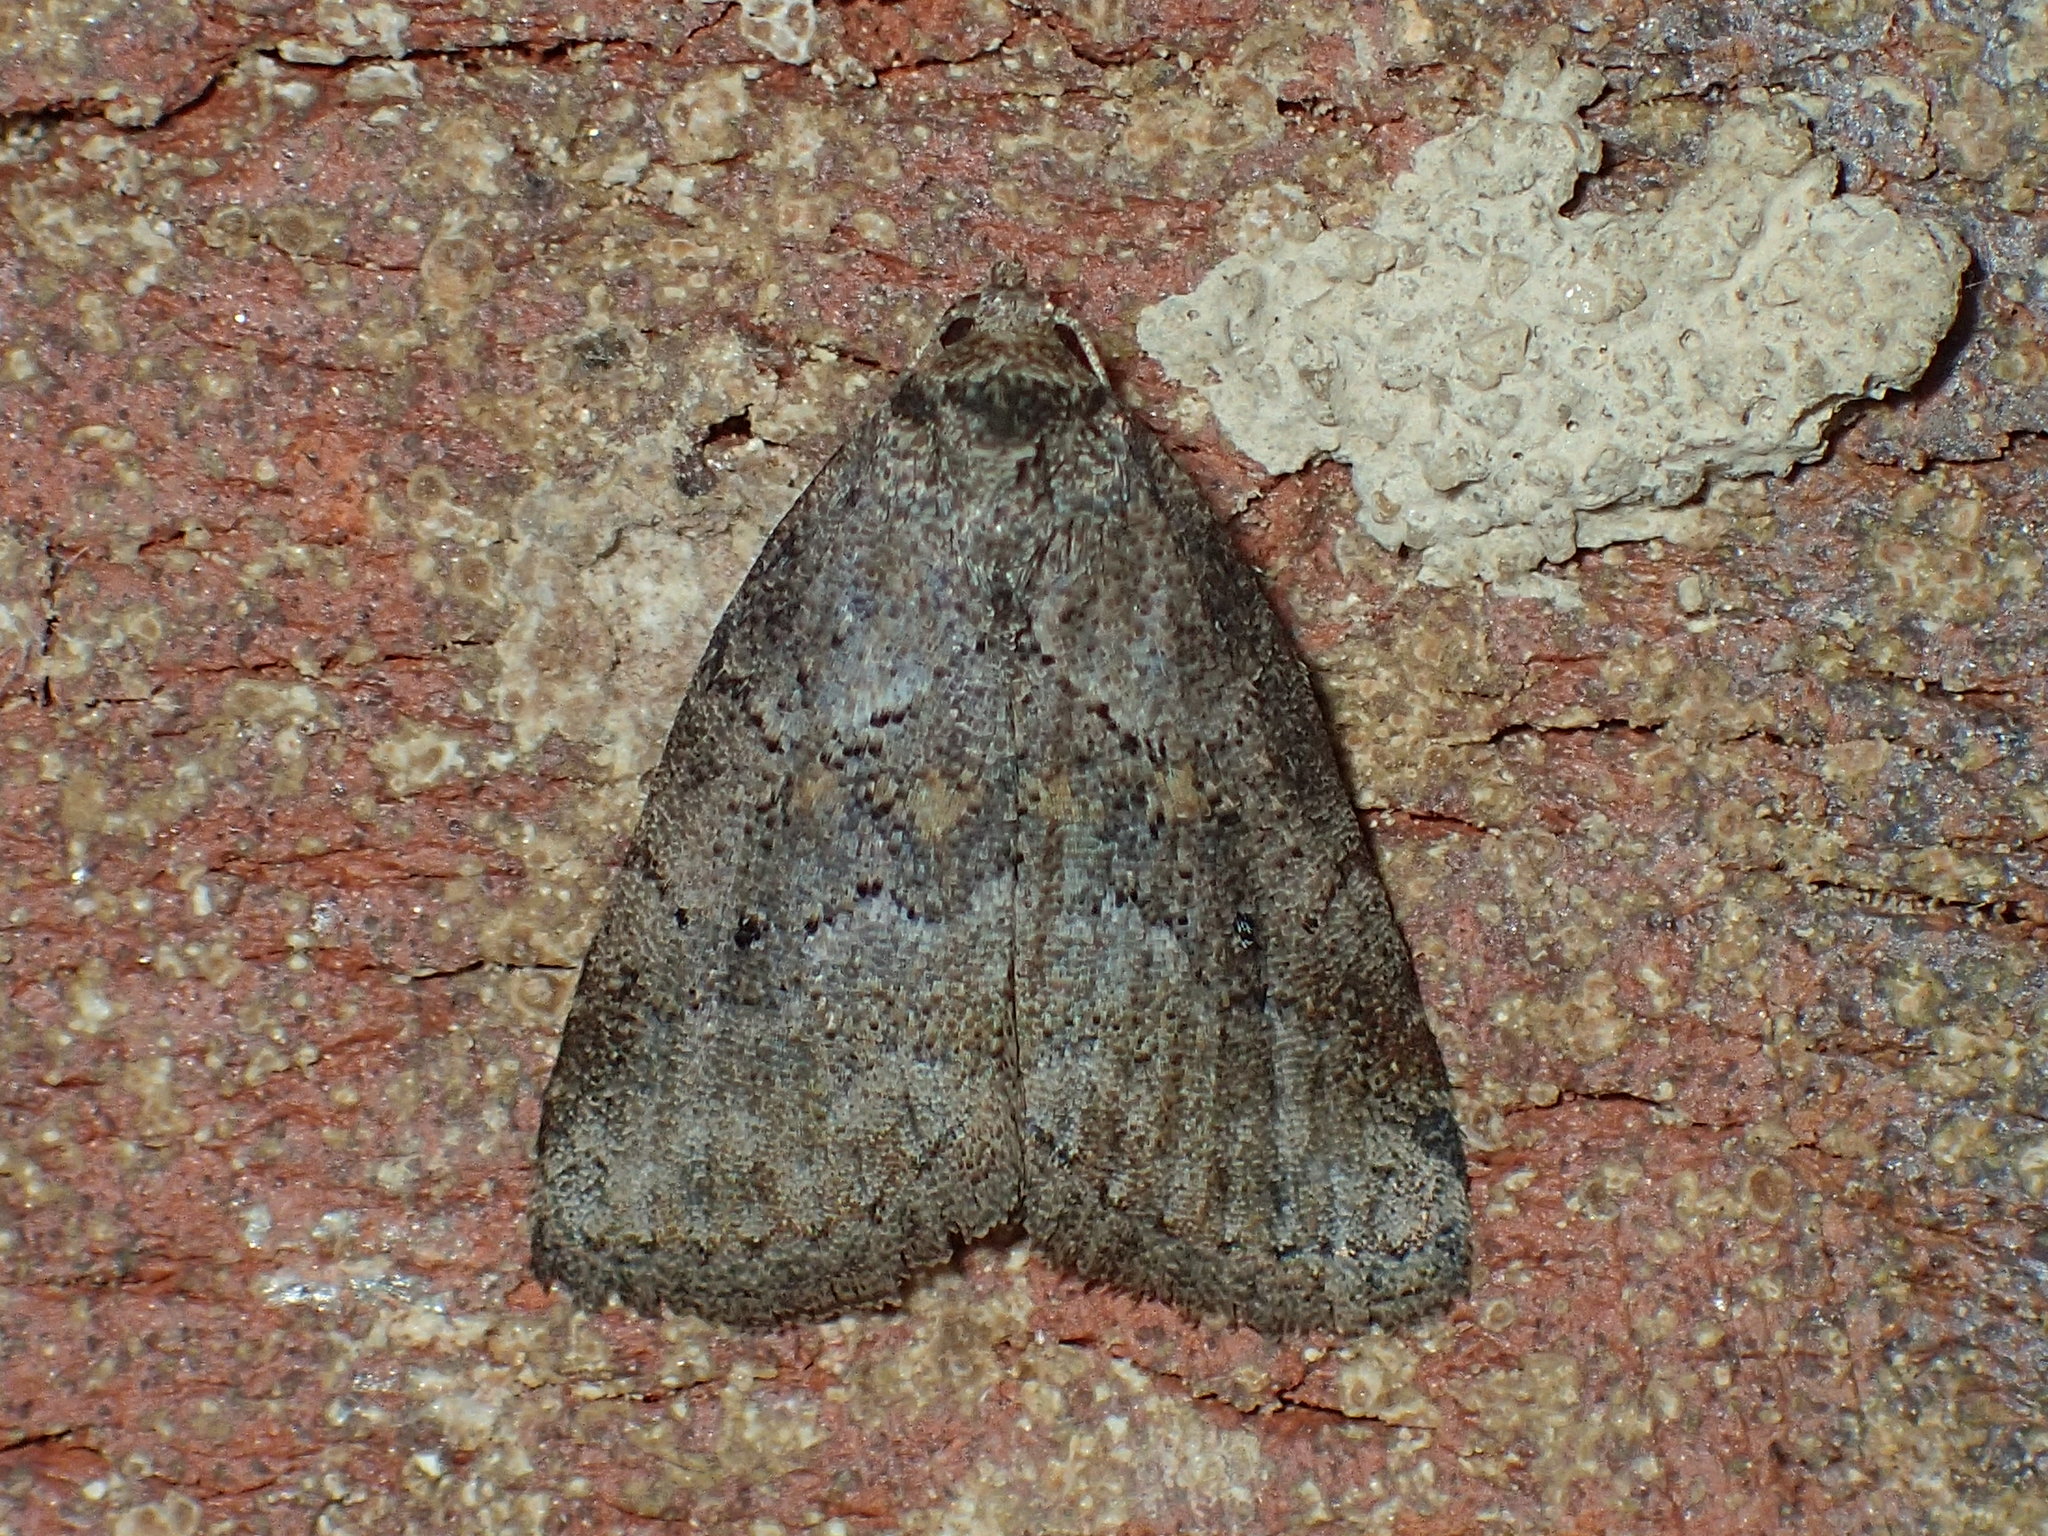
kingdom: Animalia
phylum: Arthropoda
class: Insecta
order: Lepidoptera
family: Erebidae
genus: Hyperstrotia
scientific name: Hyperstrotia nana
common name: White-lined graylet
